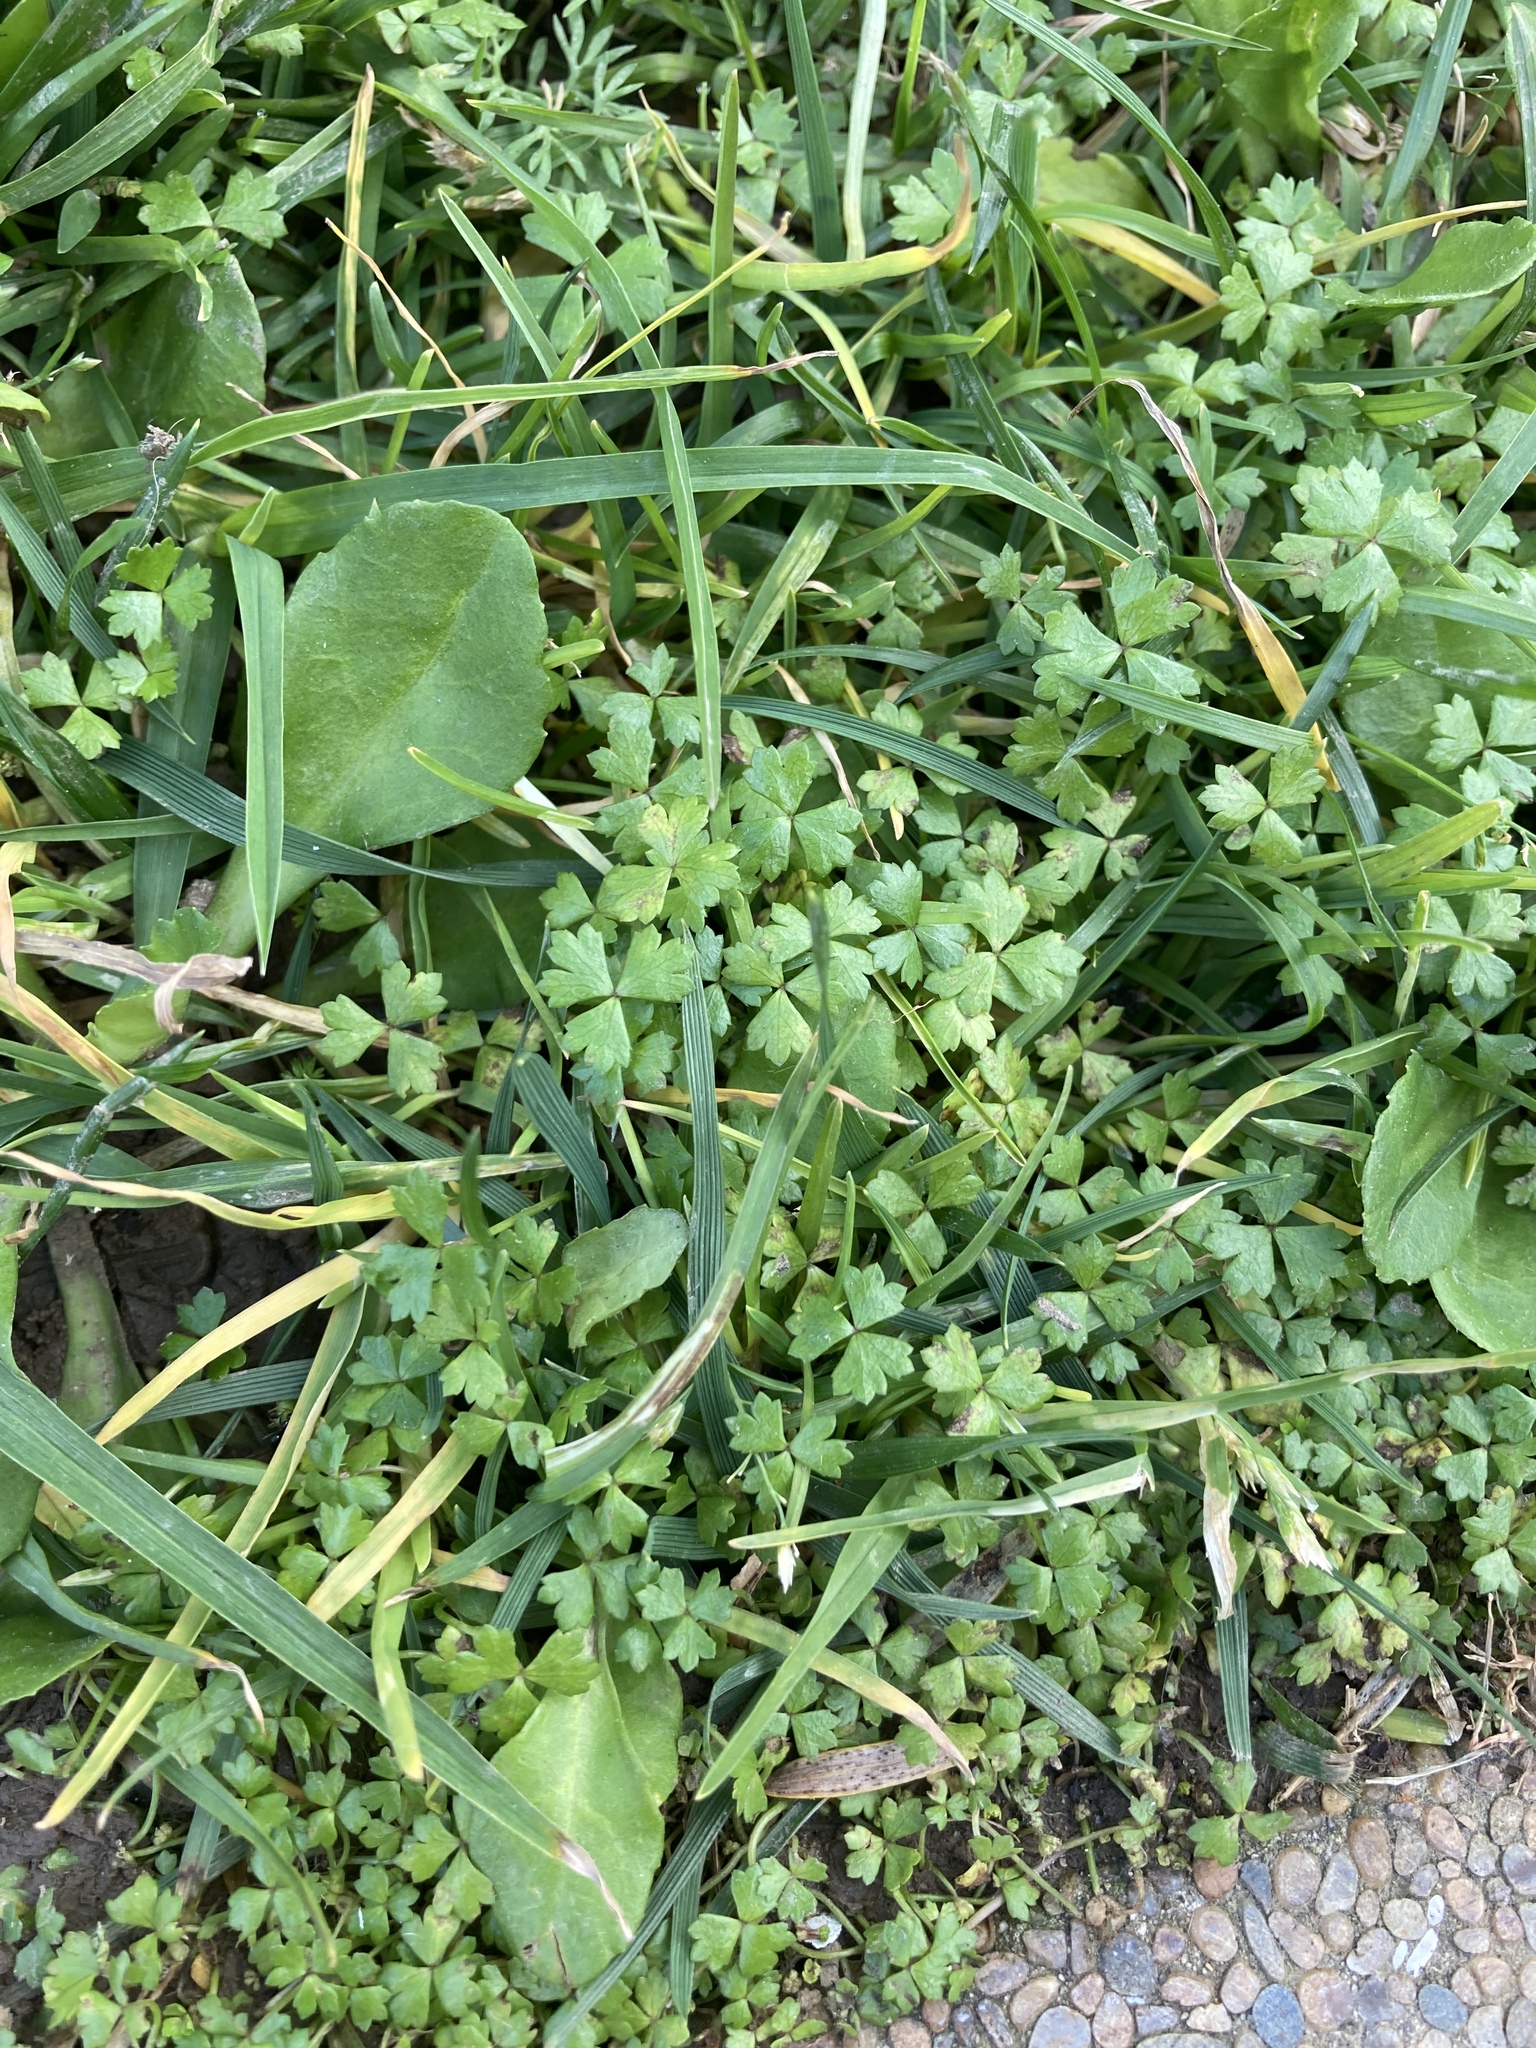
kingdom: Plantae
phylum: Tracheophyta
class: Magnoliopsida
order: Apiales
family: Araliaceae
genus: Hydrocotyle
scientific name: Hydrocotyle tripartita
